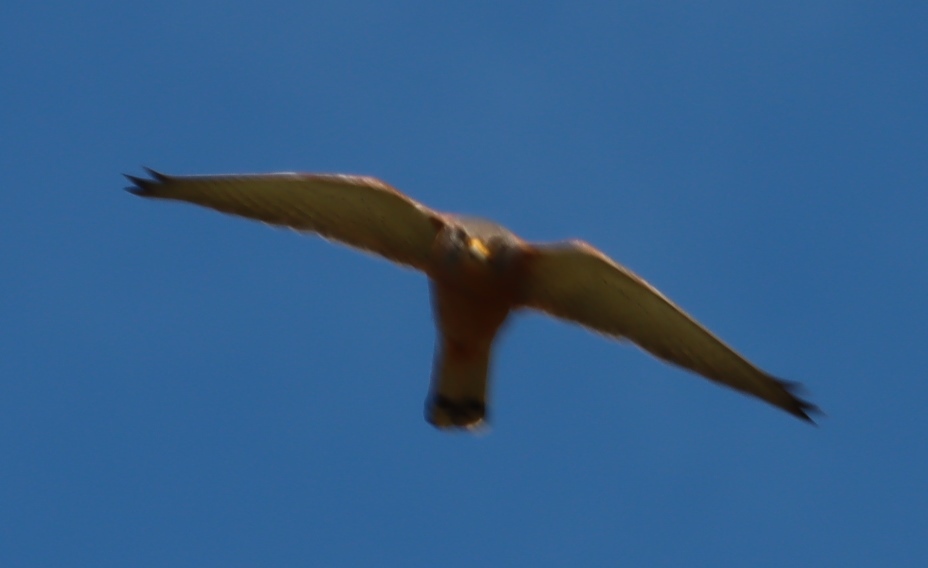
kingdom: Animalia
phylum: Chordata
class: Aves
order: Falconiformes
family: Falconidae
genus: Falco
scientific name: Falco rupicolus
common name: Rock kestrel
